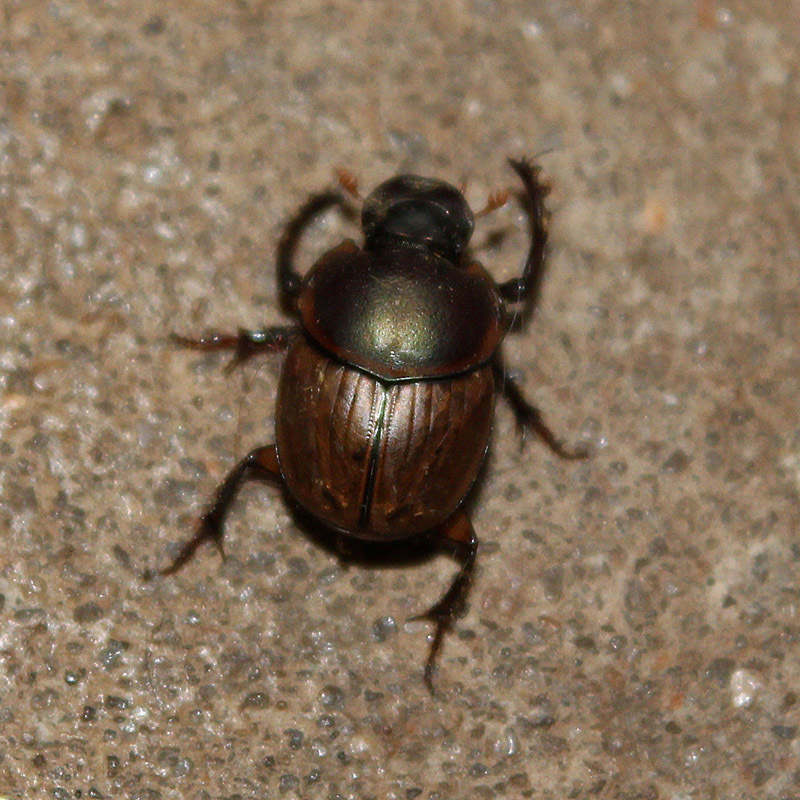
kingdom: Animalia
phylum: Arthropoda
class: Insecta
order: Coleoptera
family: Scarabaeidae
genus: Digitonthophagus
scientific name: Digitonthophagus gazella
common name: Brown dung beetle
